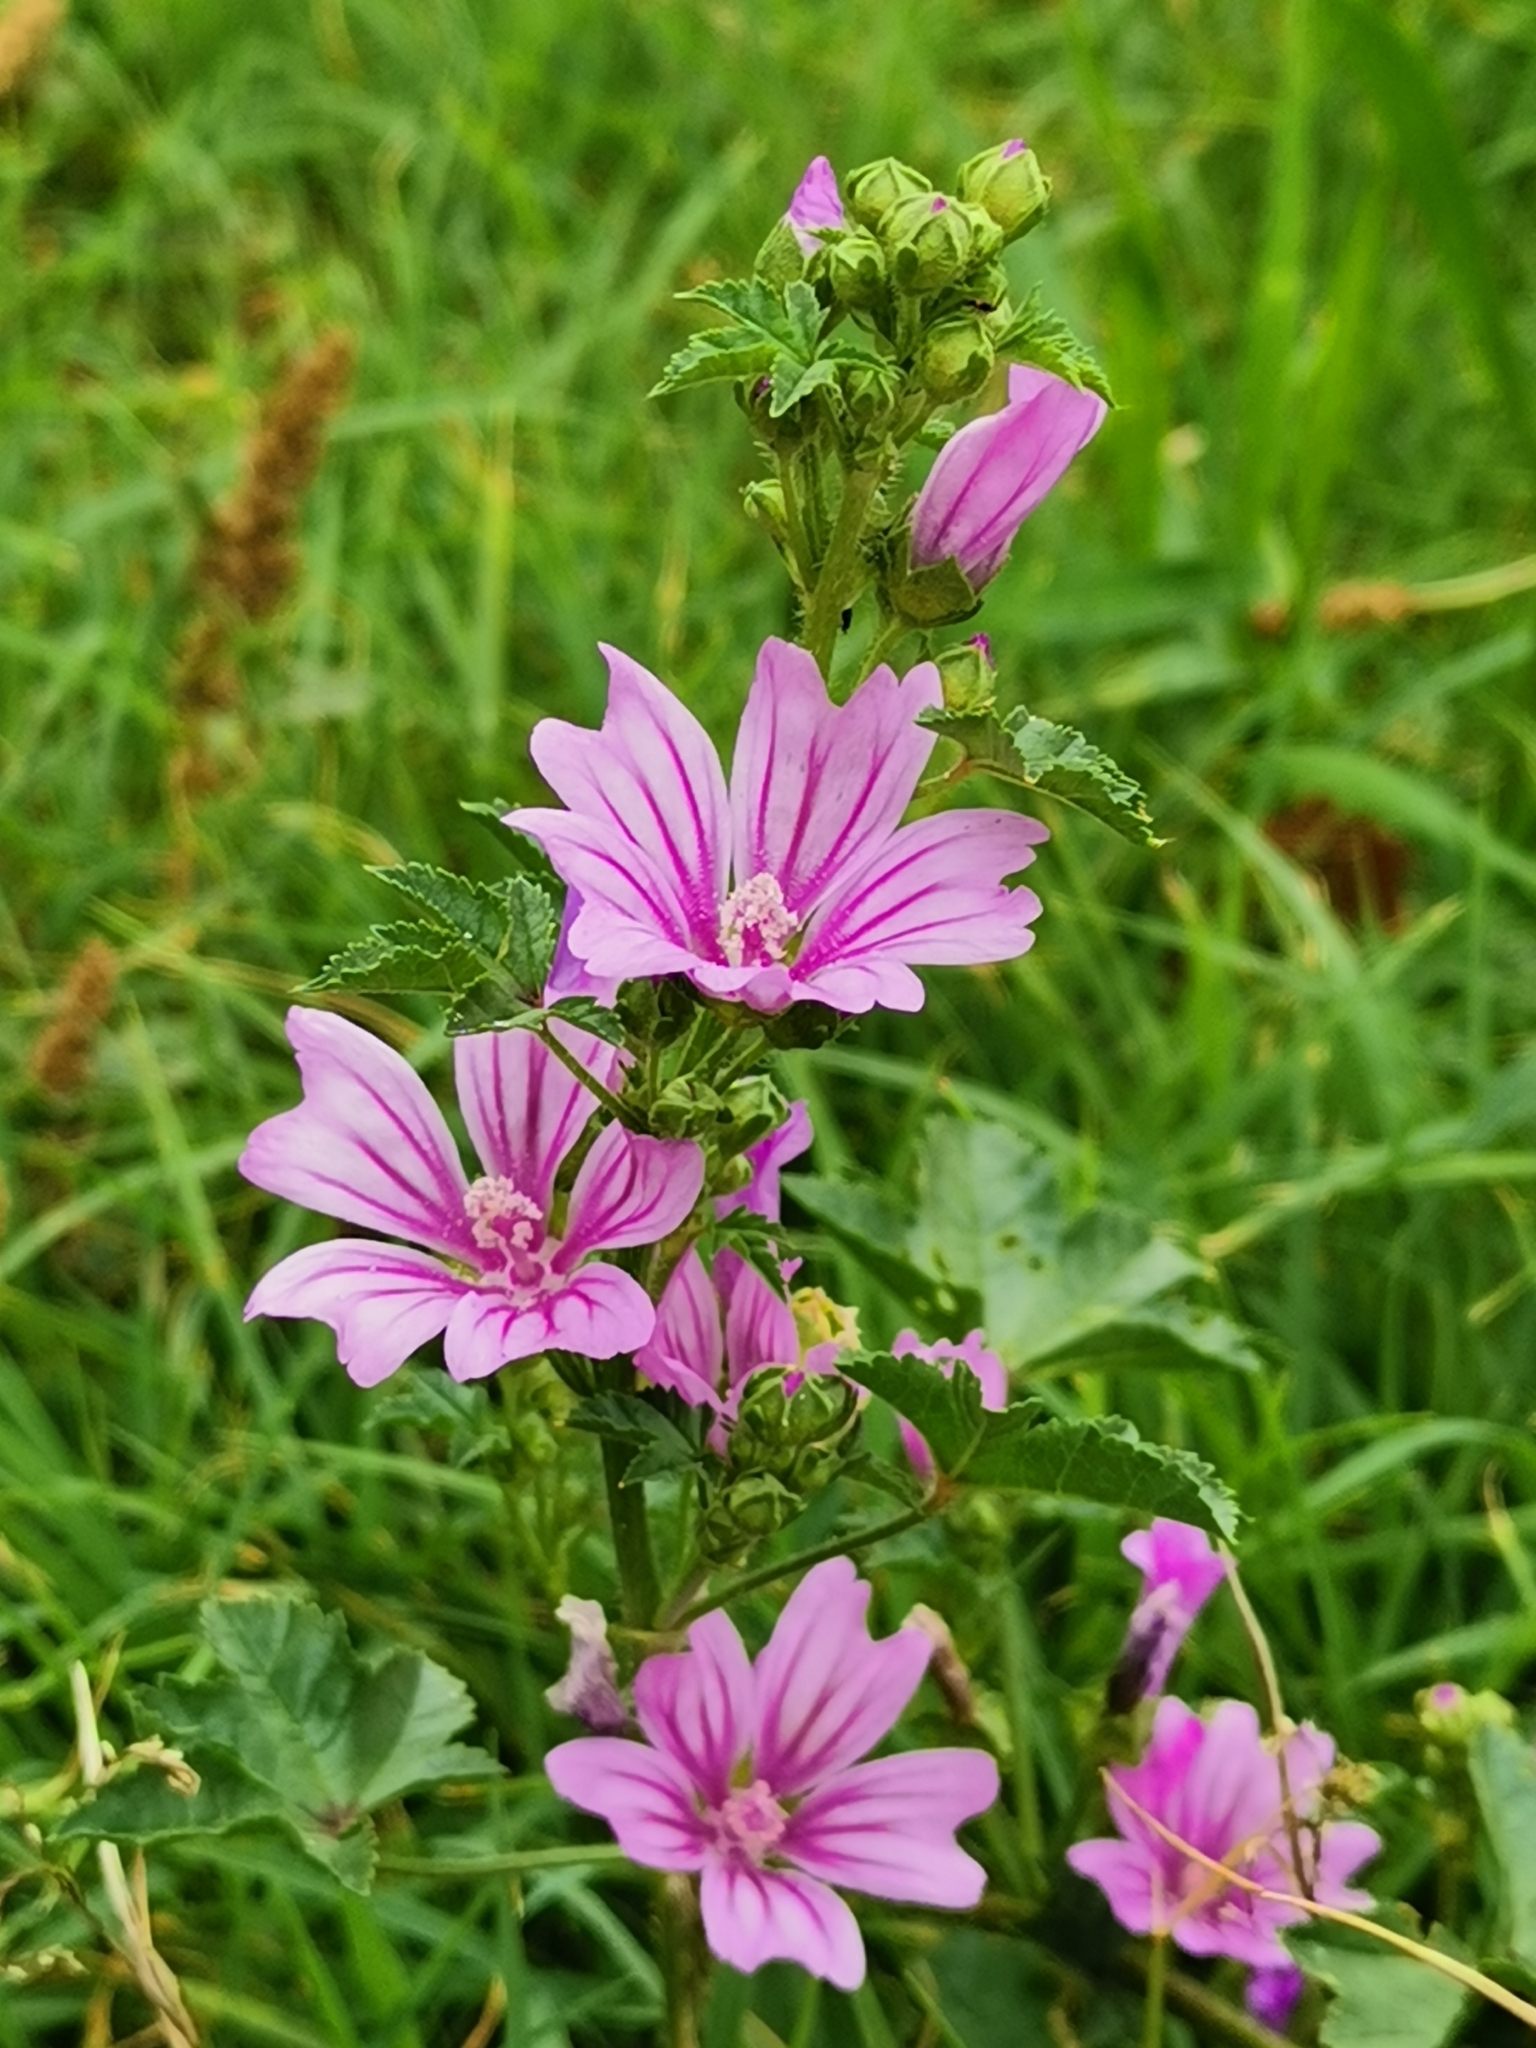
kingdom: Plantae
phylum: Tracheophyta
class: Magnoliopsida
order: Malvales
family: Malvaceae
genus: Malva
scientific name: Malva sylvestris
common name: Common mallow
